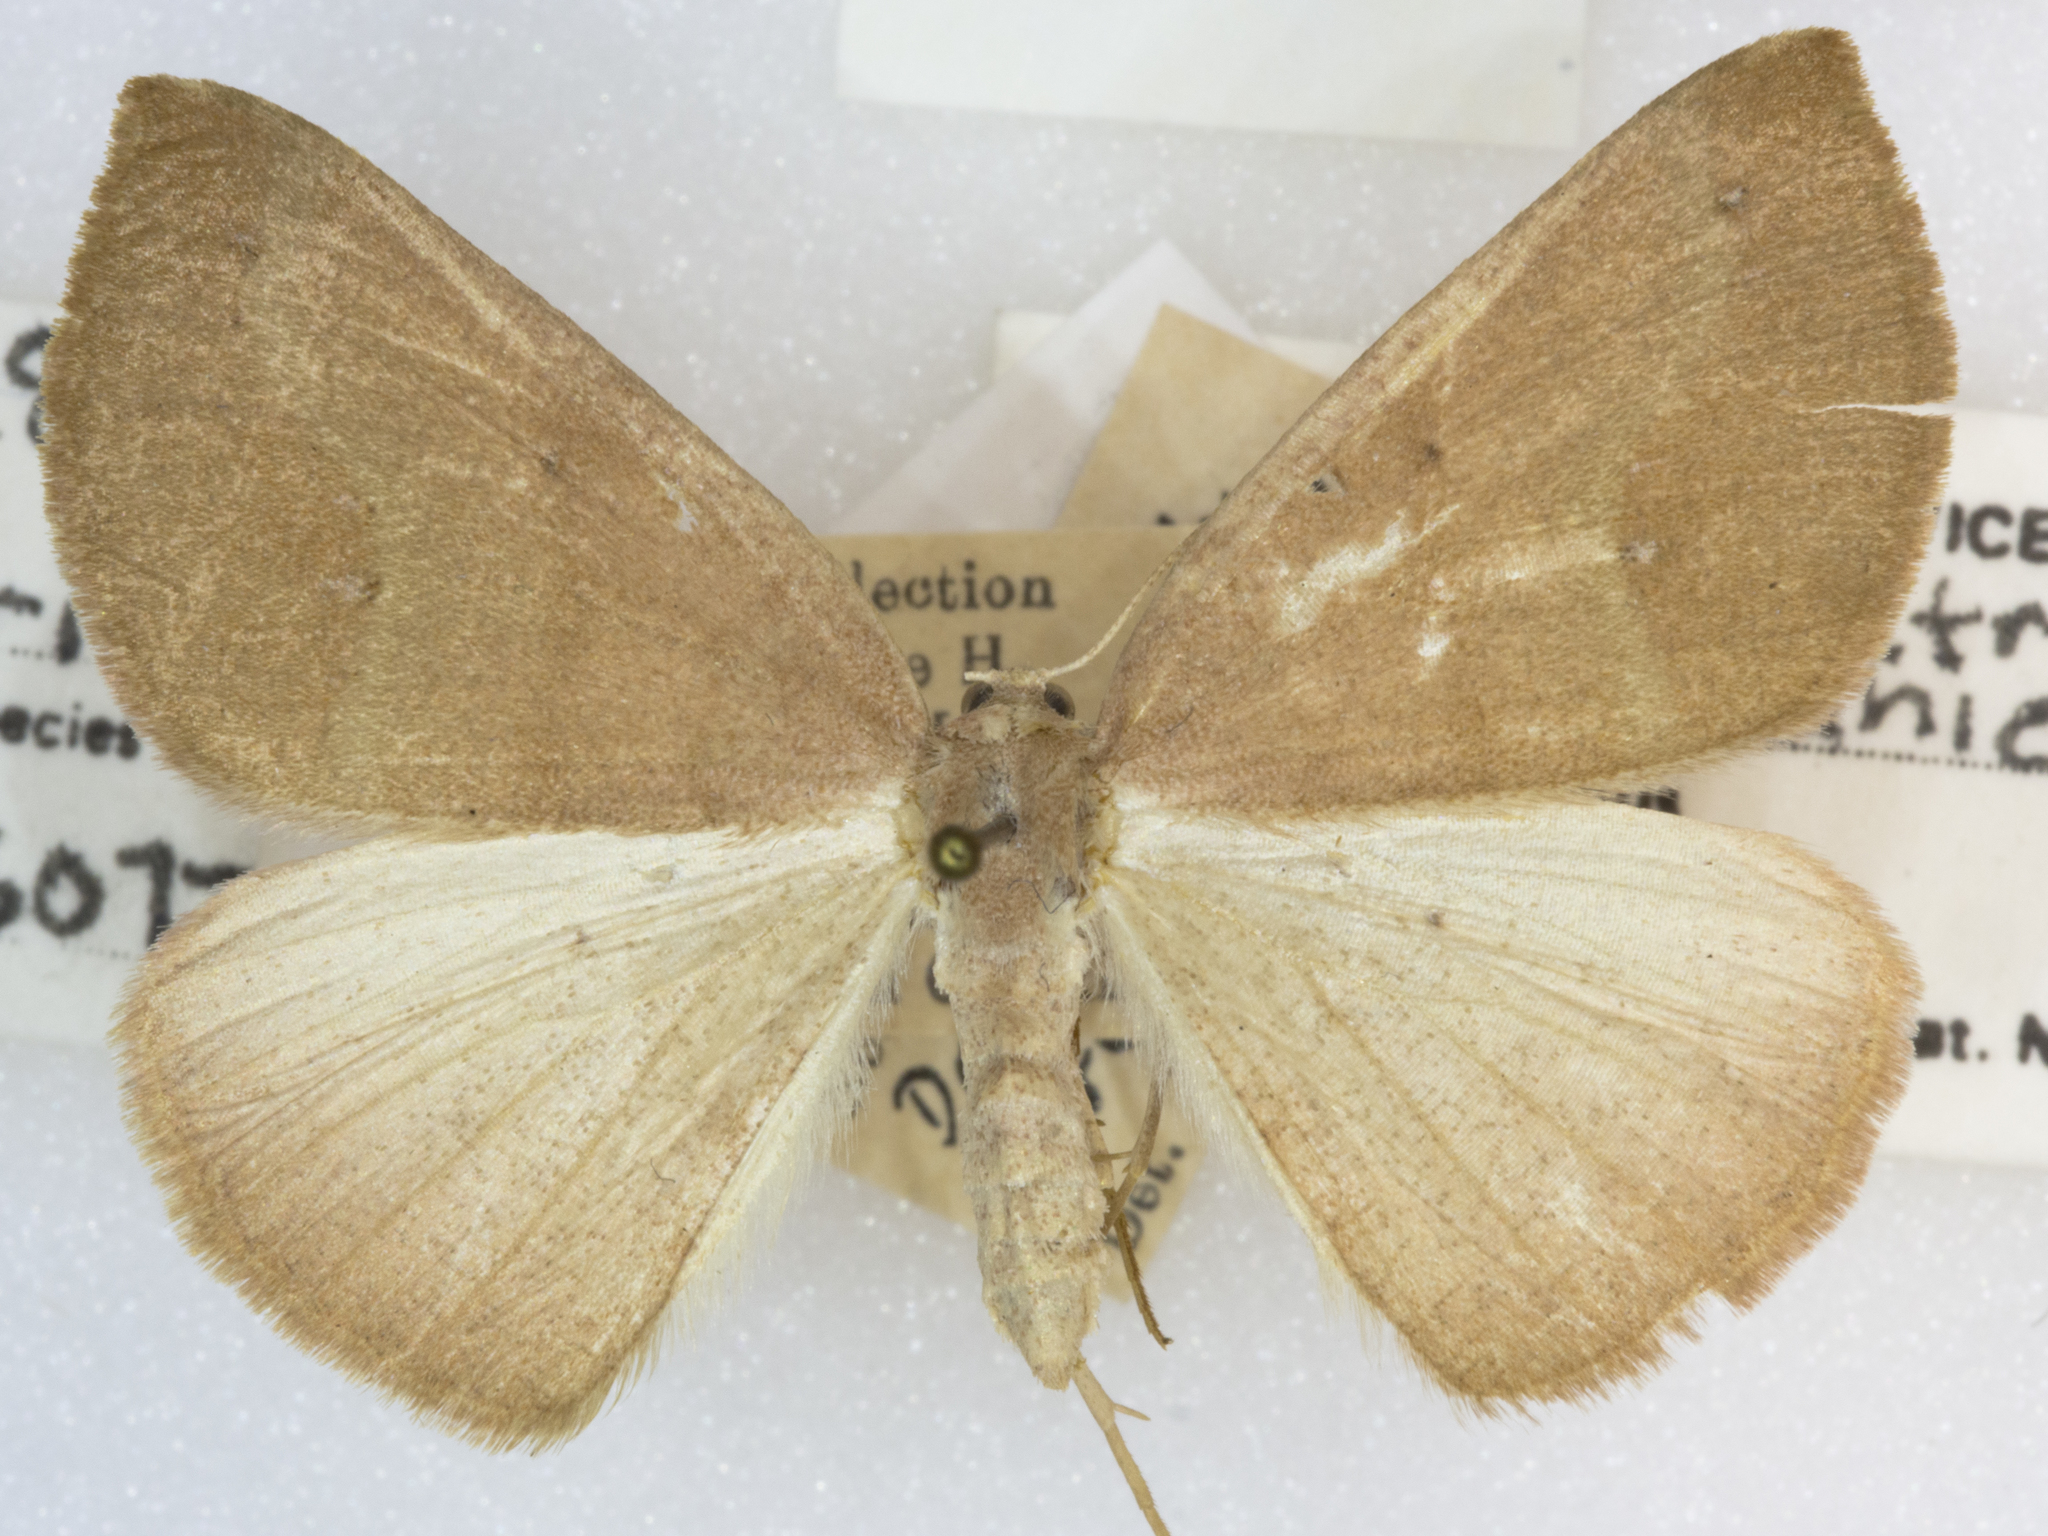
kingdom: Animalia
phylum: Arthropoda
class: Insecta
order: Lepidoptera
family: Geometridae
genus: Drepanulatrix
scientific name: Drepanulatrix unicalcararia
